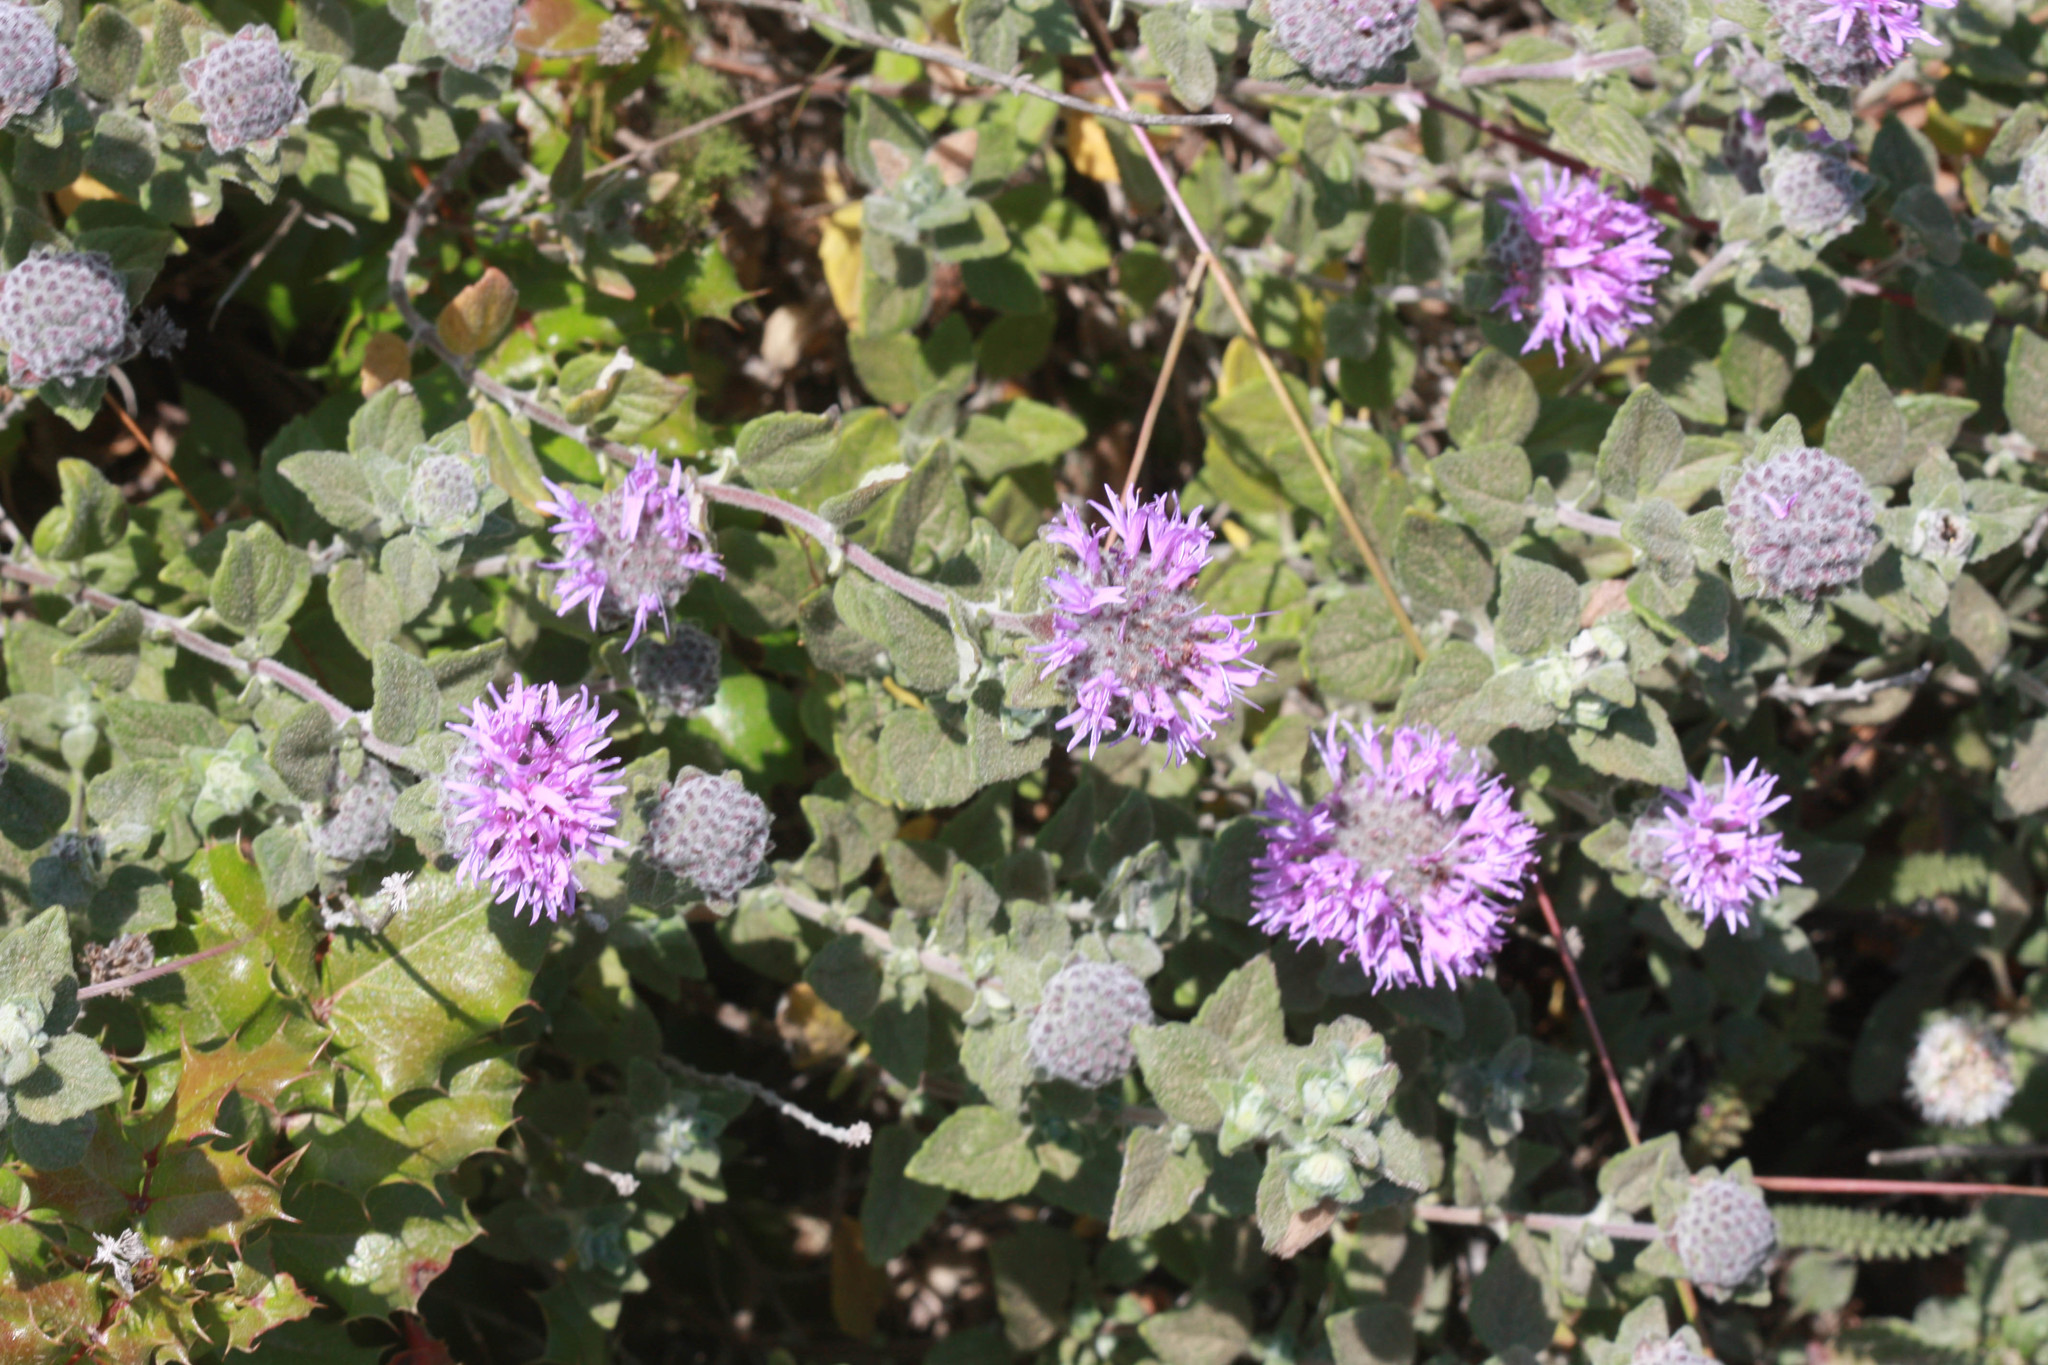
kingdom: Plantae
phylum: Tracheophyta
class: Magnoliopsida
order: Lamiales
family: Lamiaceae
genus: Monardella
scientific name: Monardella odoratissima
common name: Pacific monardella
